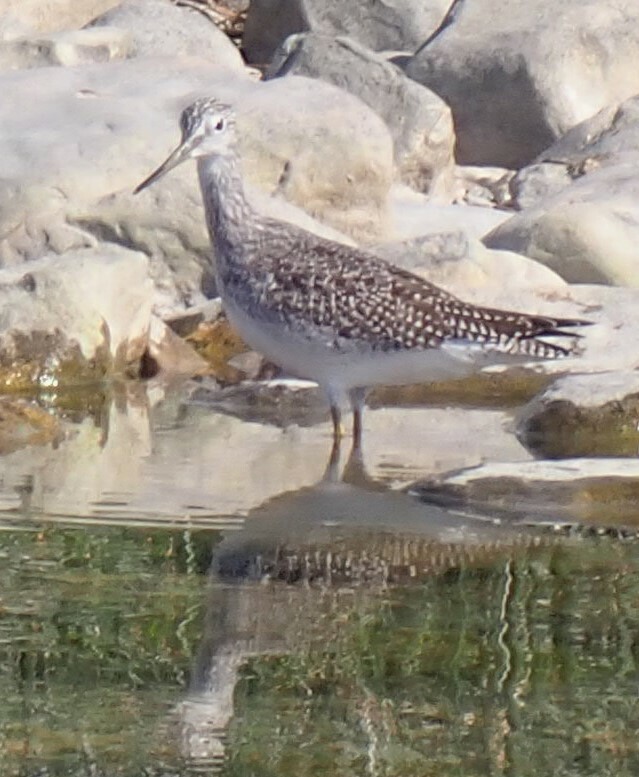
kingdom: Animalia
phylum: Chordata
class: Aves
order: Charadriiformes
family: Scolopacidae
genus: Tringa
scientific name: Tringa melanoleuca
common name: Greater yellowlegs
